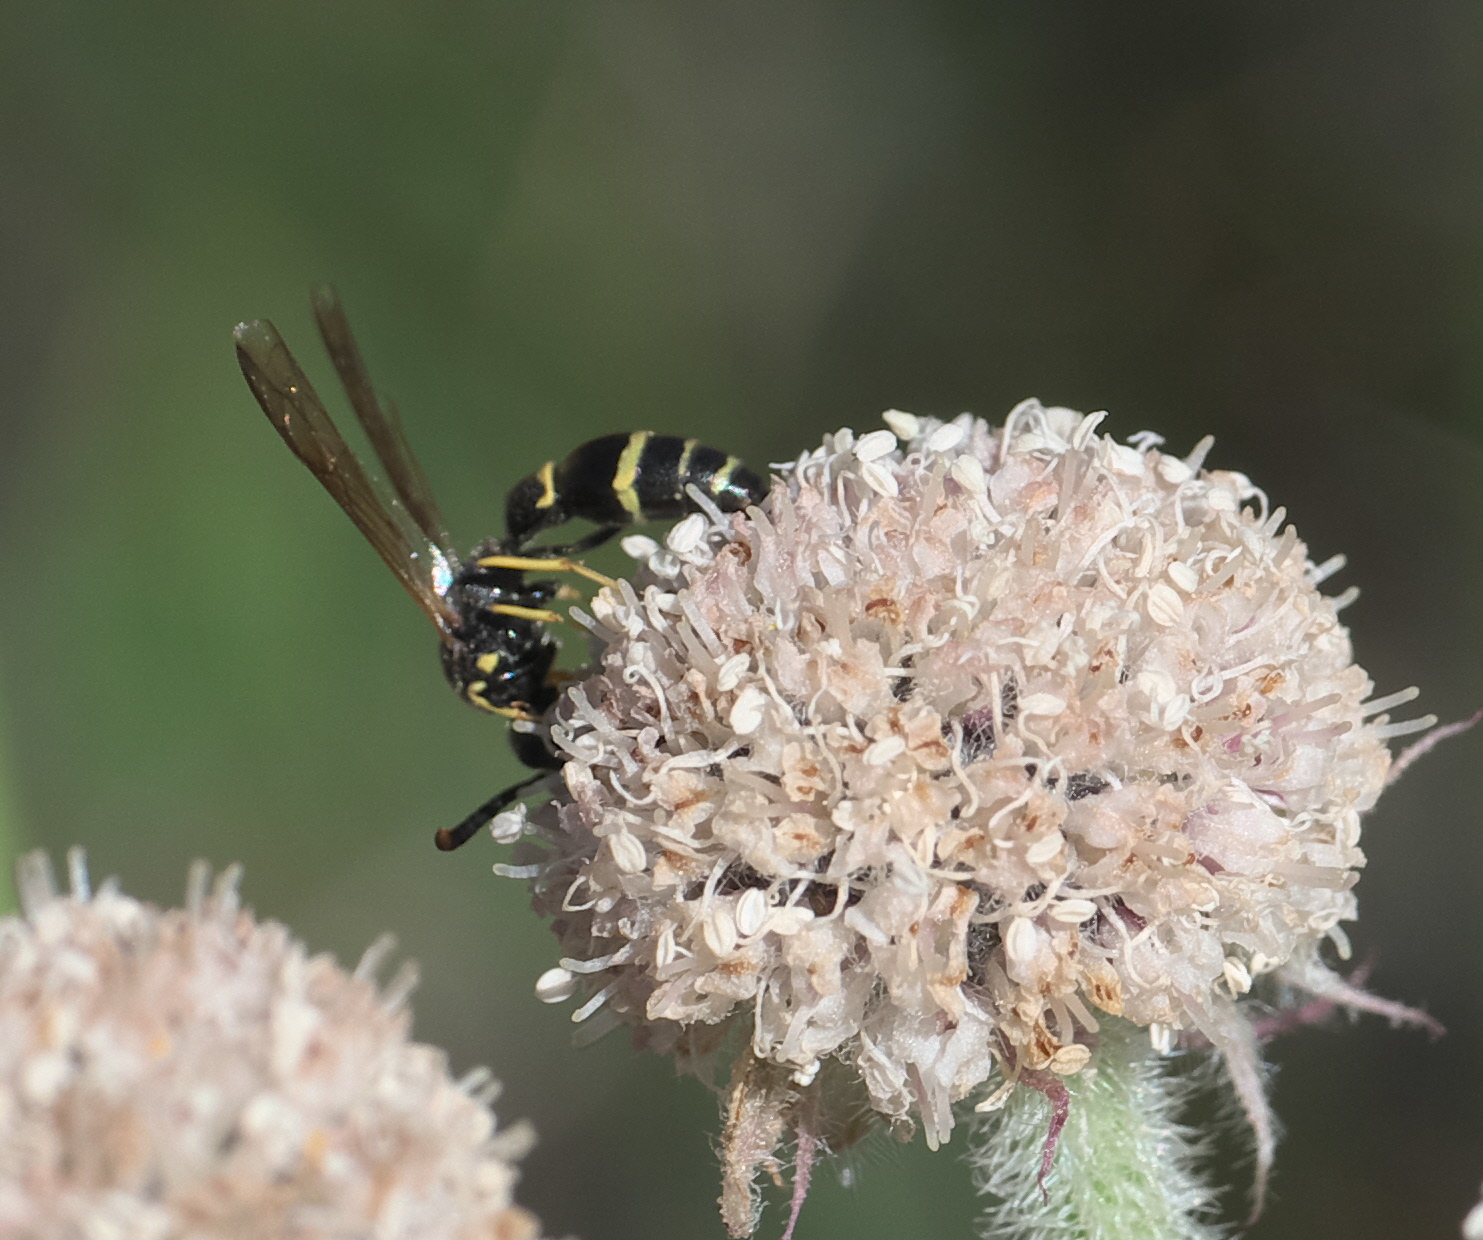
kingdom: Animalia
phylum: Arthropoda
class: Insecta
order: Hymenoptera
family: Eumenidae
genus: Symmorphus
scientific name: Symmorphus
